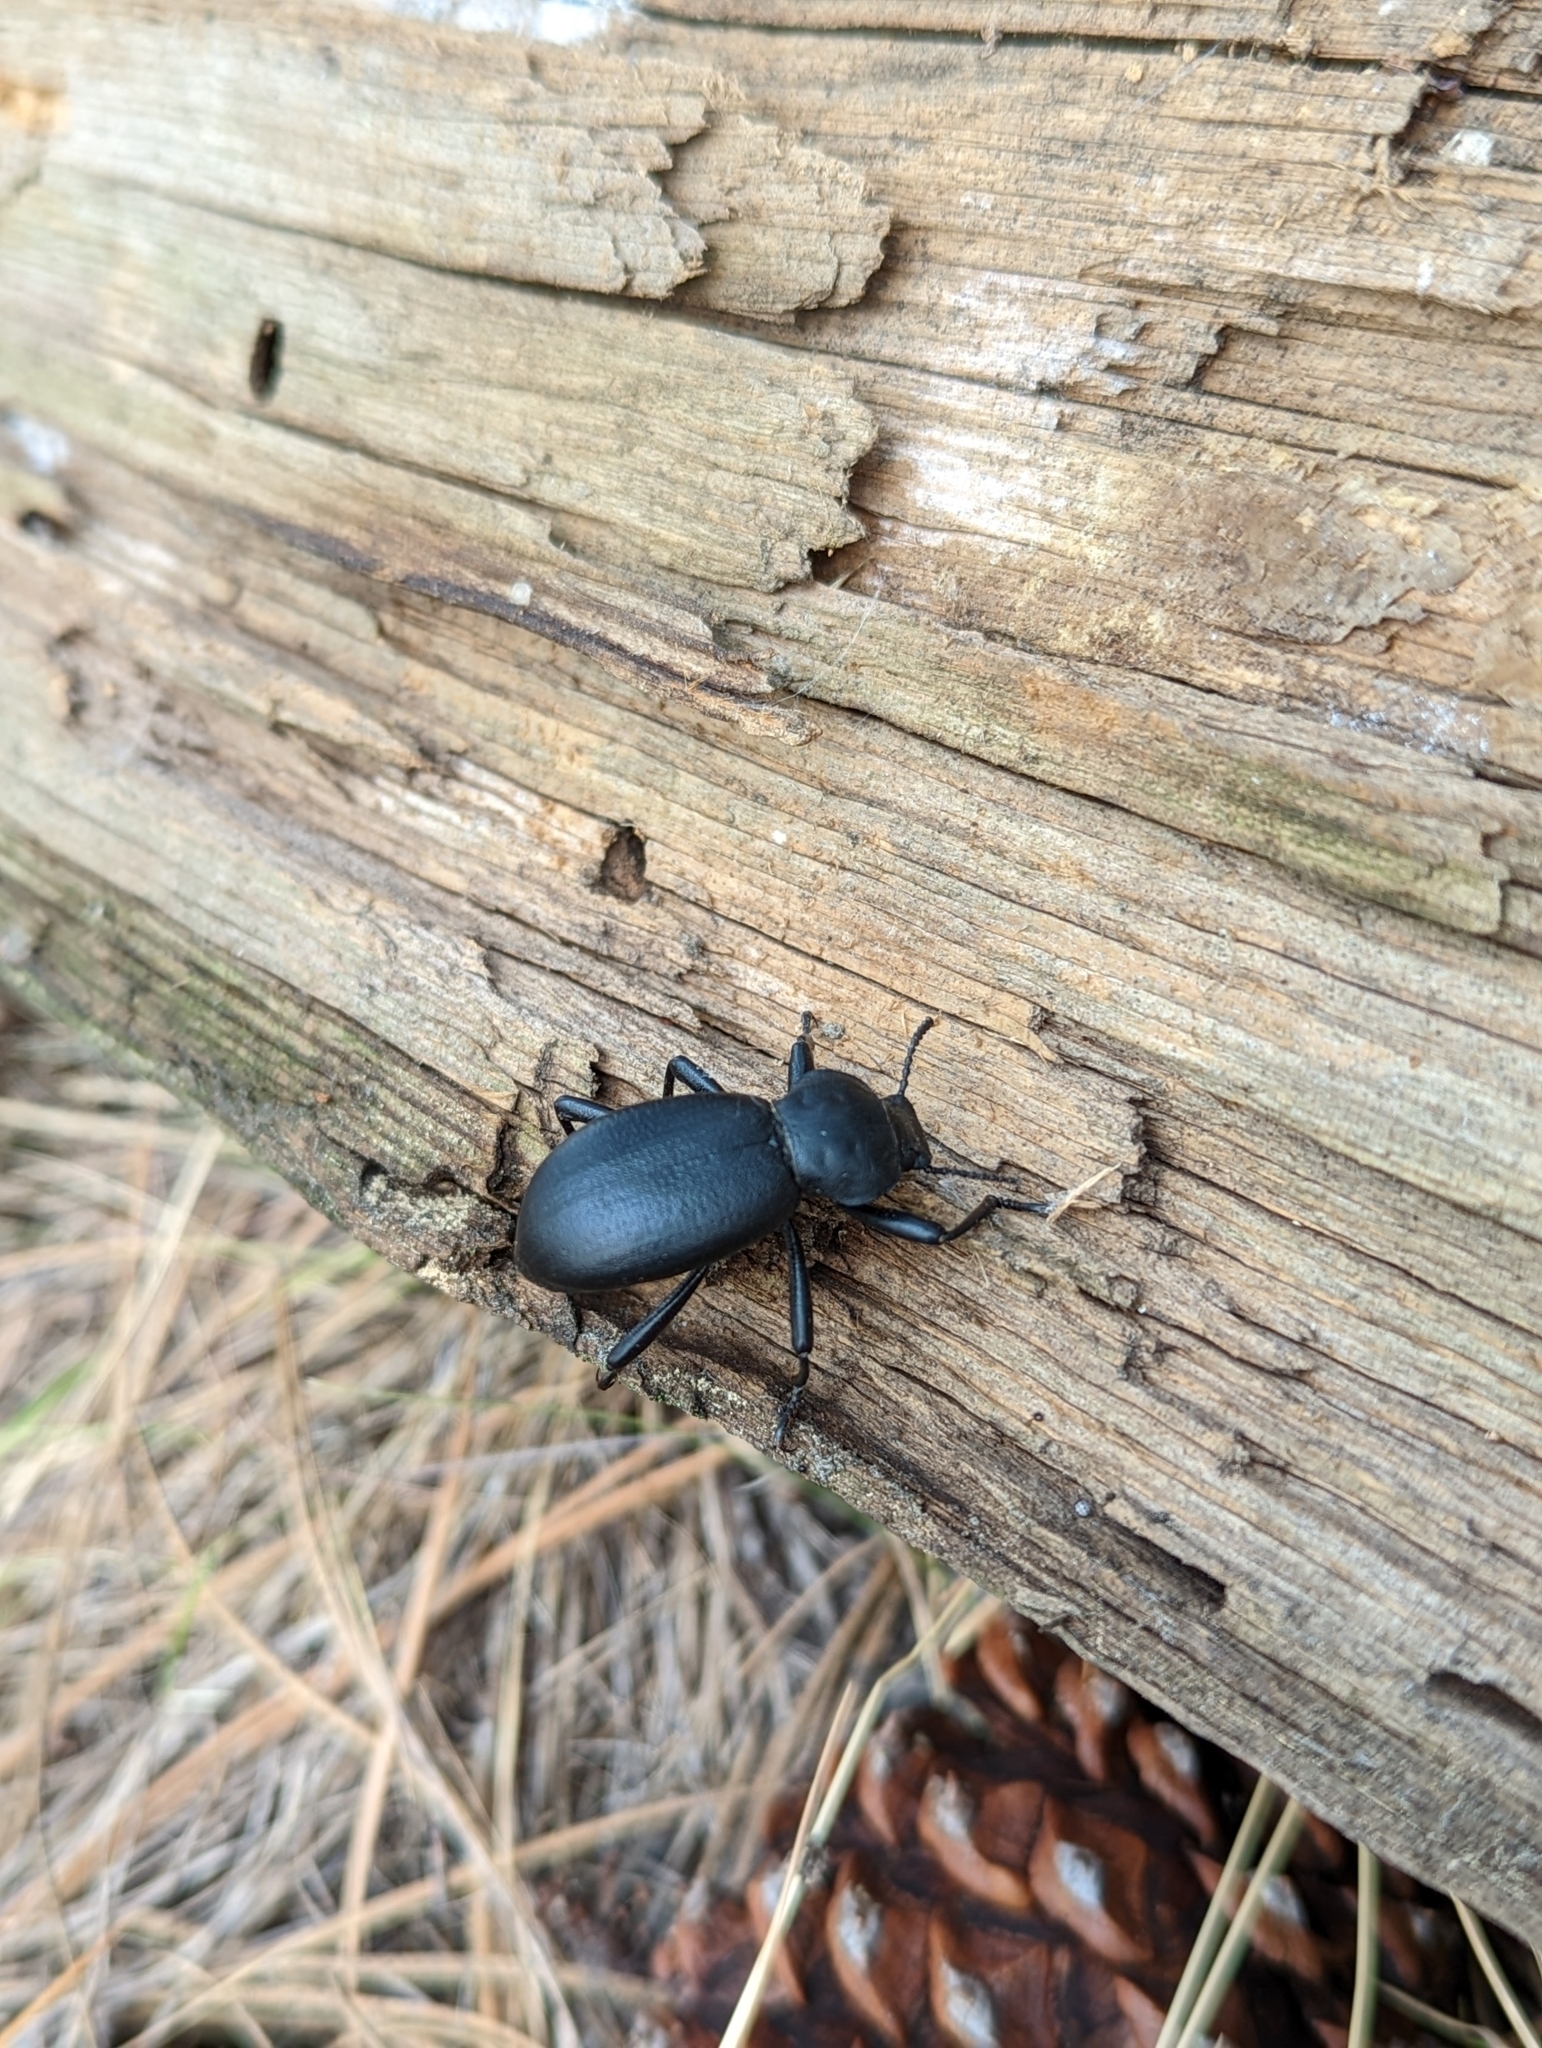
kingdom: Animalia
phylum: Arthropoda
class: Insecta
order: Coleoptera
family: Tenebrionidae
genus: Coelocnemis
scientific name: Coelocnemis dilaticollis
